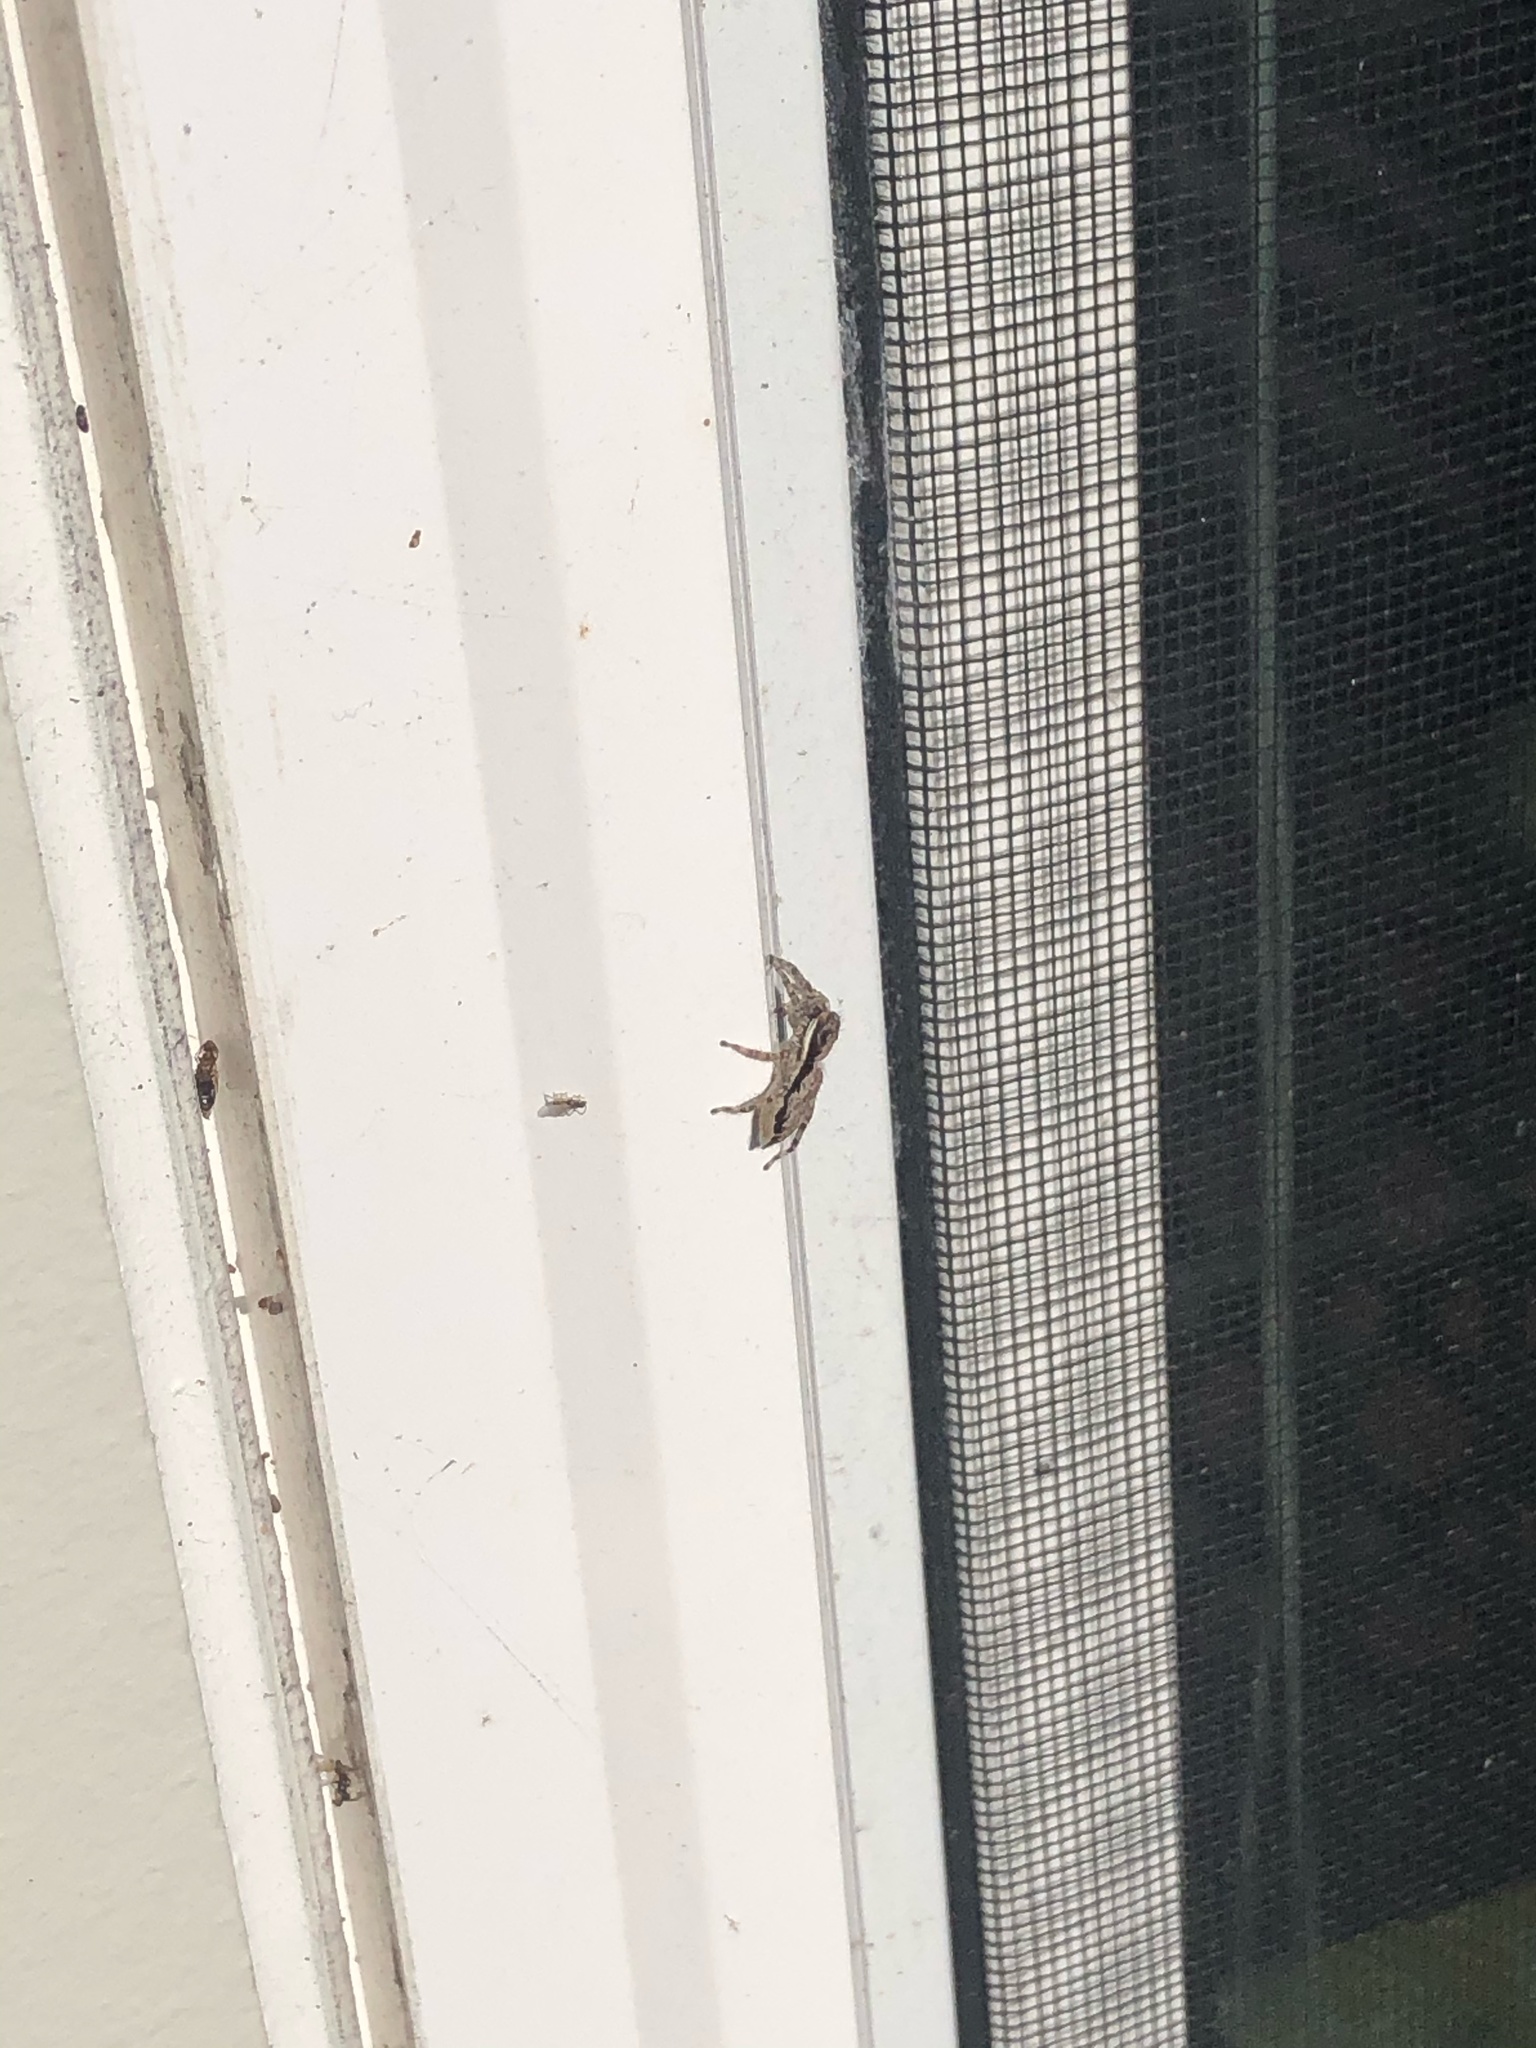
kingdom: Animalia
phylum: Arthropoda
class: Arachnida
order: Araneae
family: Salticidae
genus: Menemerus
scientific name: Menemerus bivittatus
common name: Gray wall jumper
